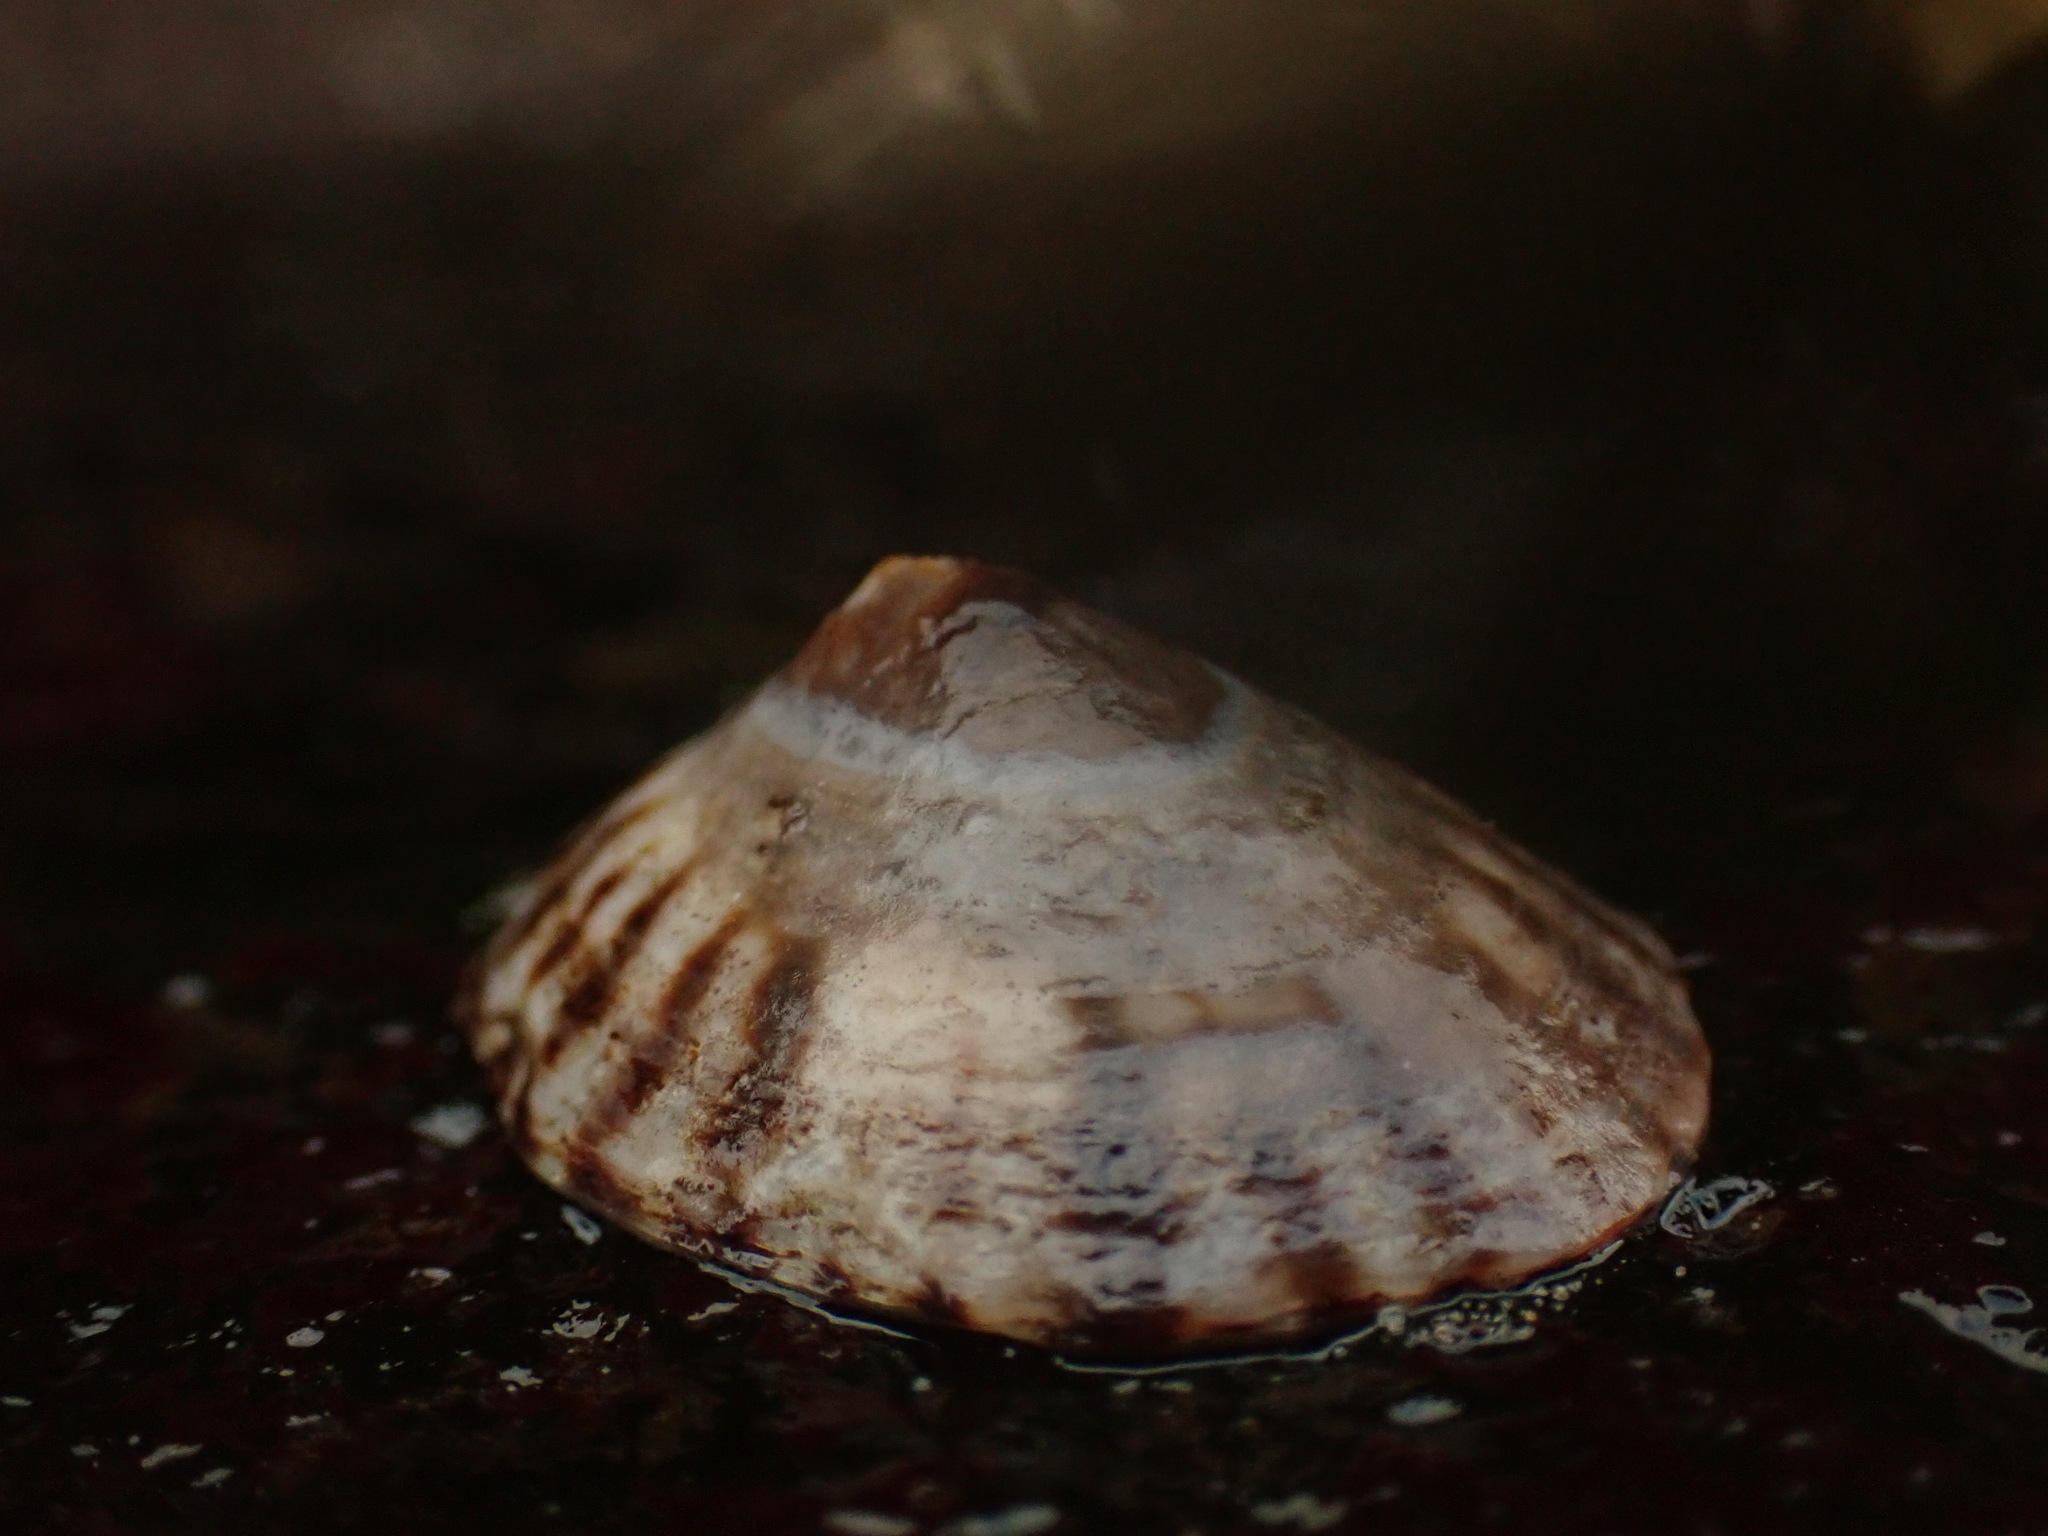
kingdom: Animalia
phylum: Mollusca
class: Gastropoda
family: Lottiidae
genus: Testudinalia
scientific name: Testudinalia testudinalis
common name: Common tortoiseshell limpet
